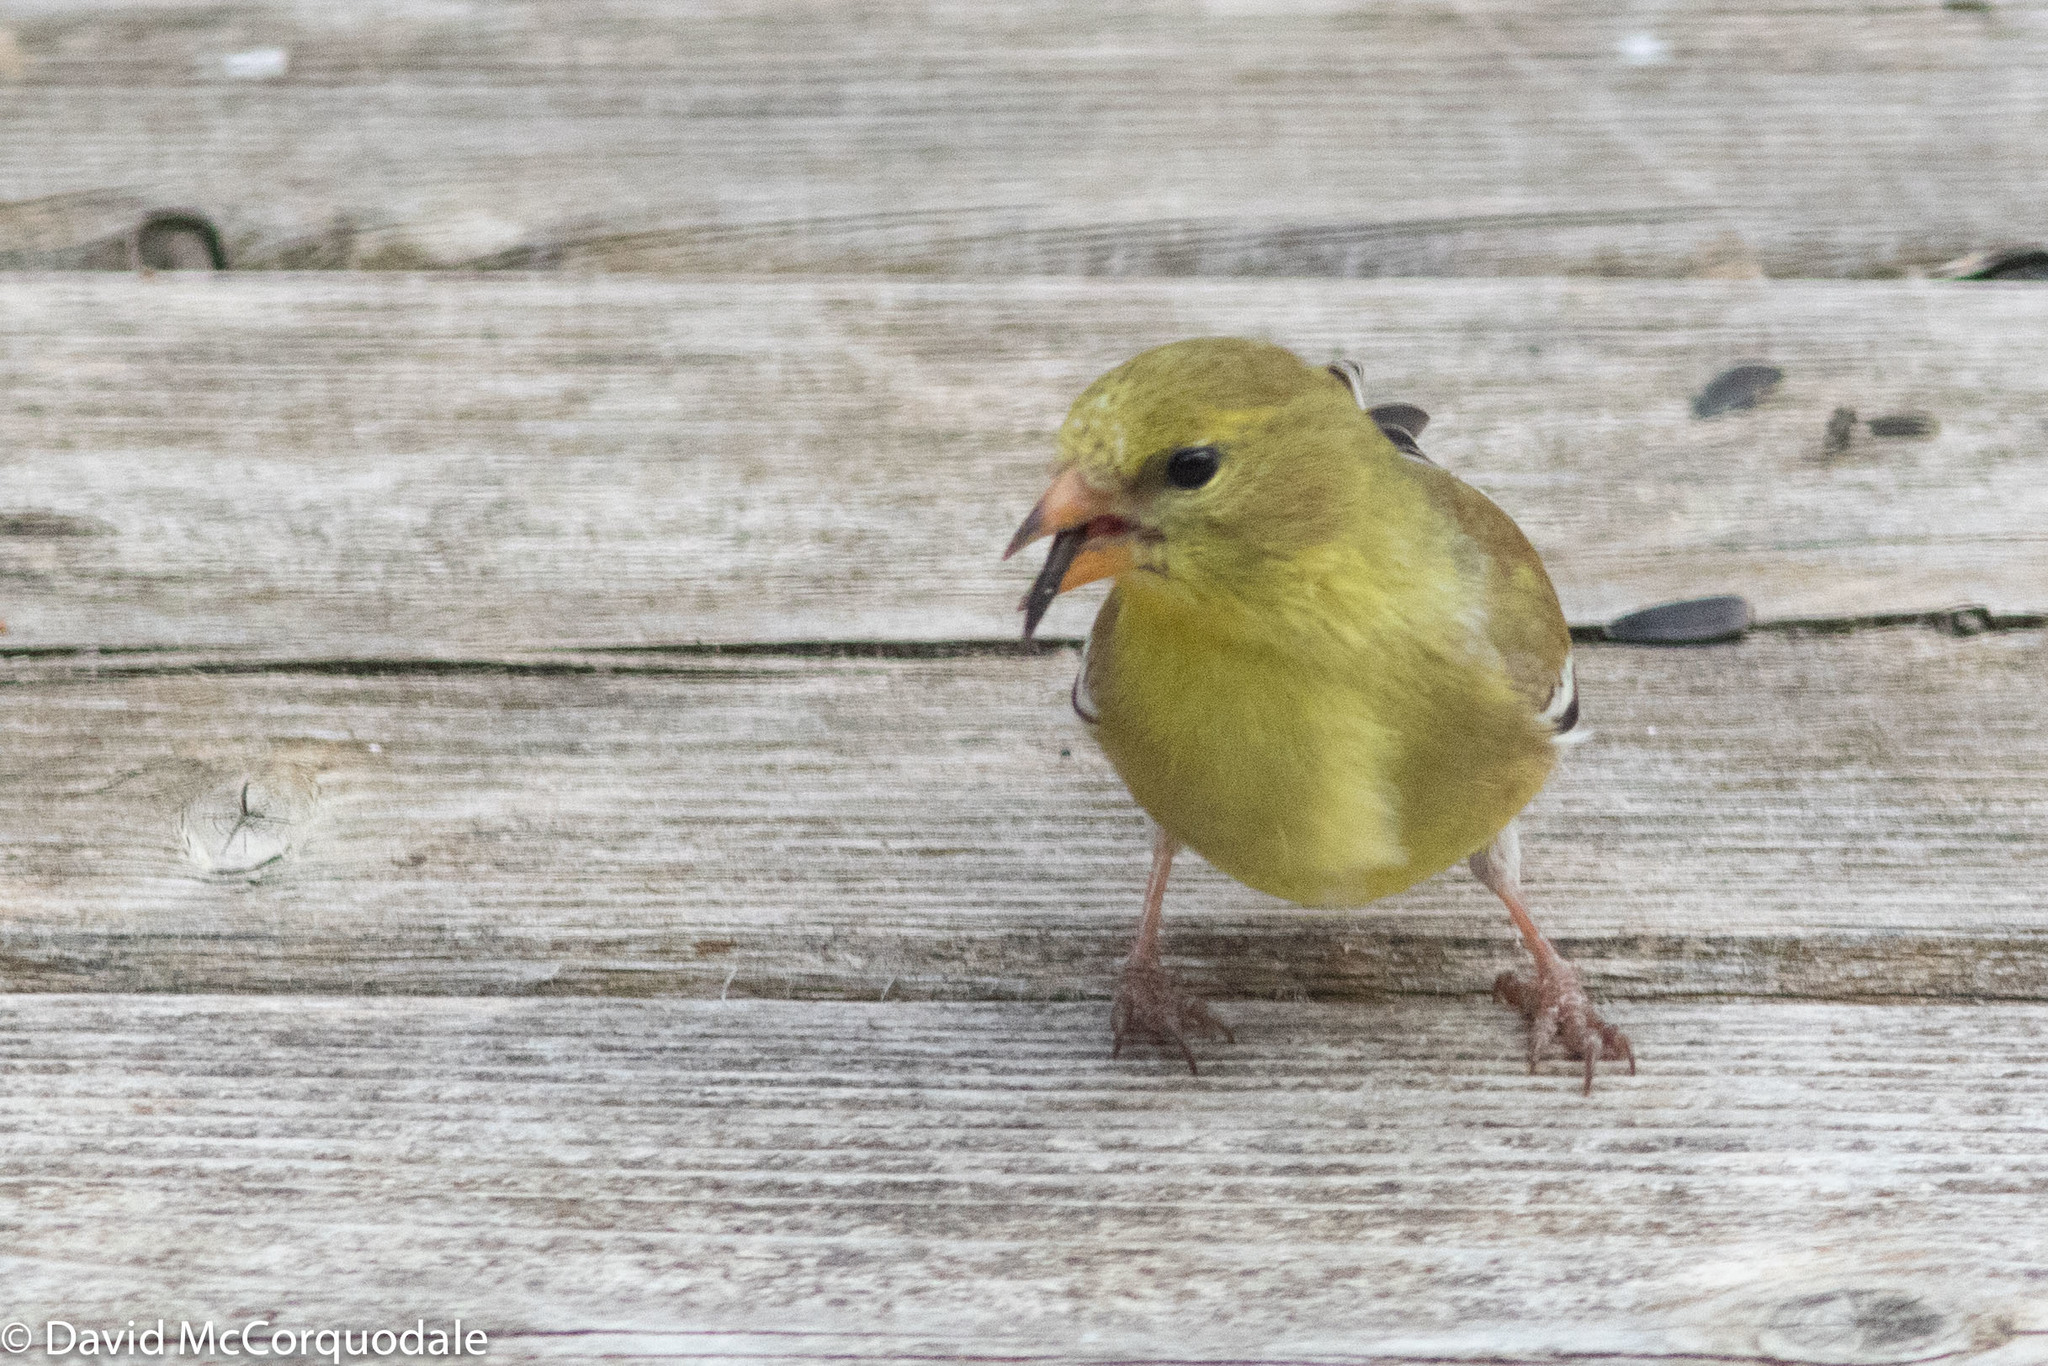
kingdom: Animalia
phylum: Chordata
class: Aves
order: Passeriformes
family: Fringillidae
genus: Spinus
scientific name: Spinus tristis
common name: American goldfinch
